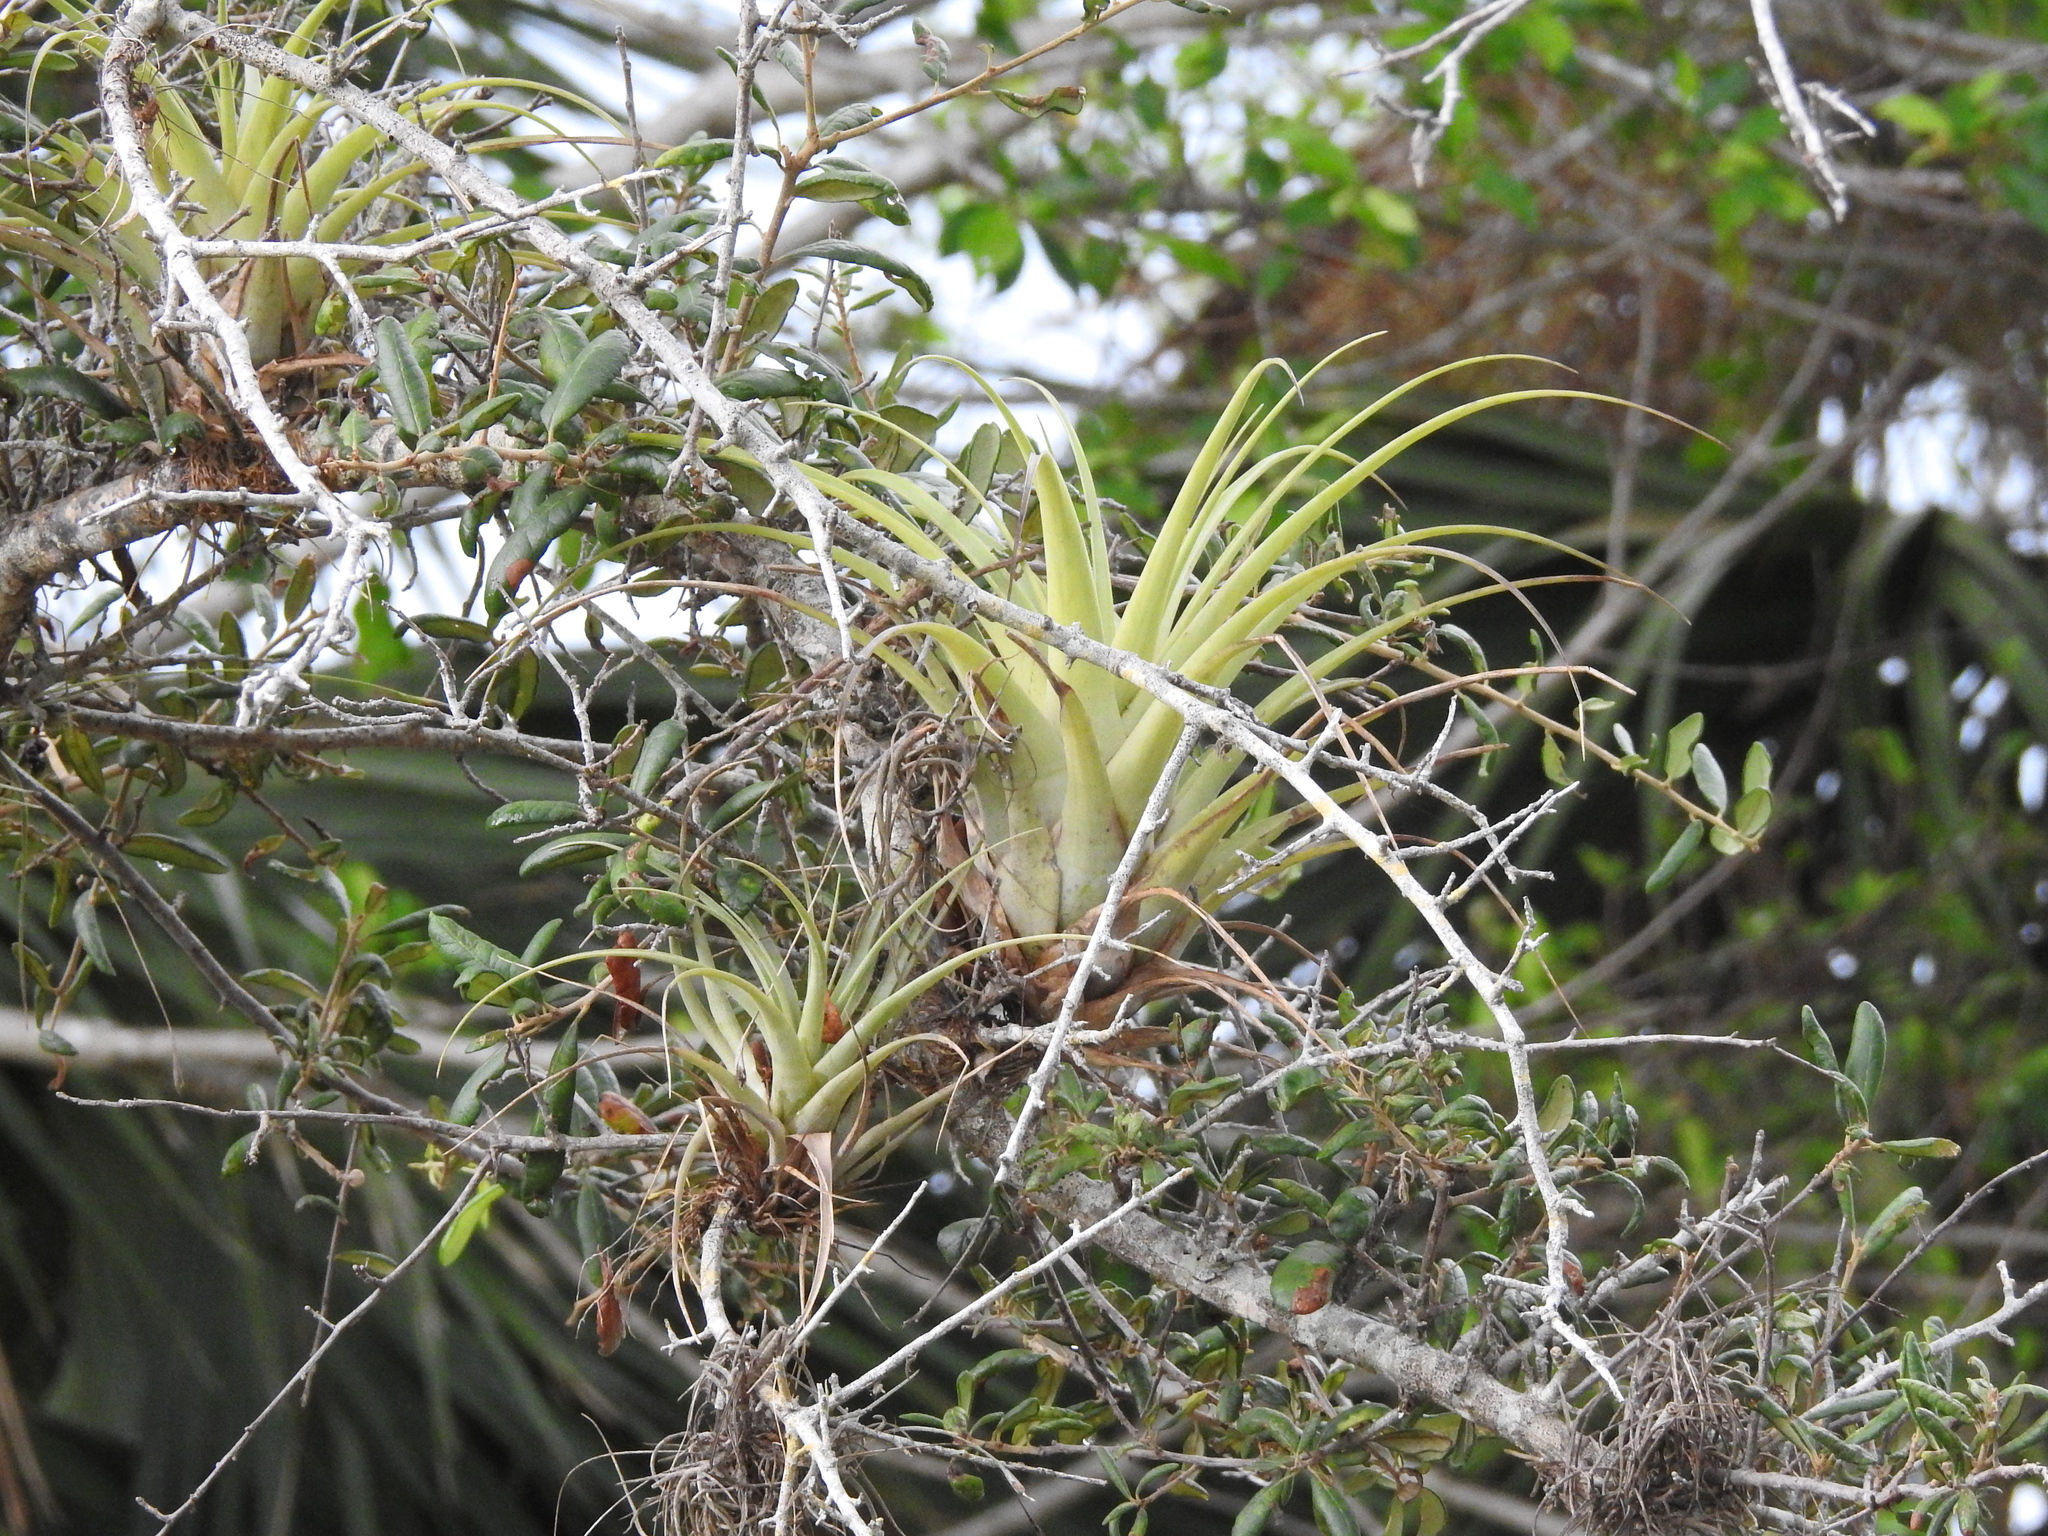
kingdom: Plantae
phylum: Tracheophyta
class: Liliopsida
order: Poales
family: Bromeliaceae
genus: Tillandsia
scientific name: Tillandsia utriculata
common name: Wild pine
